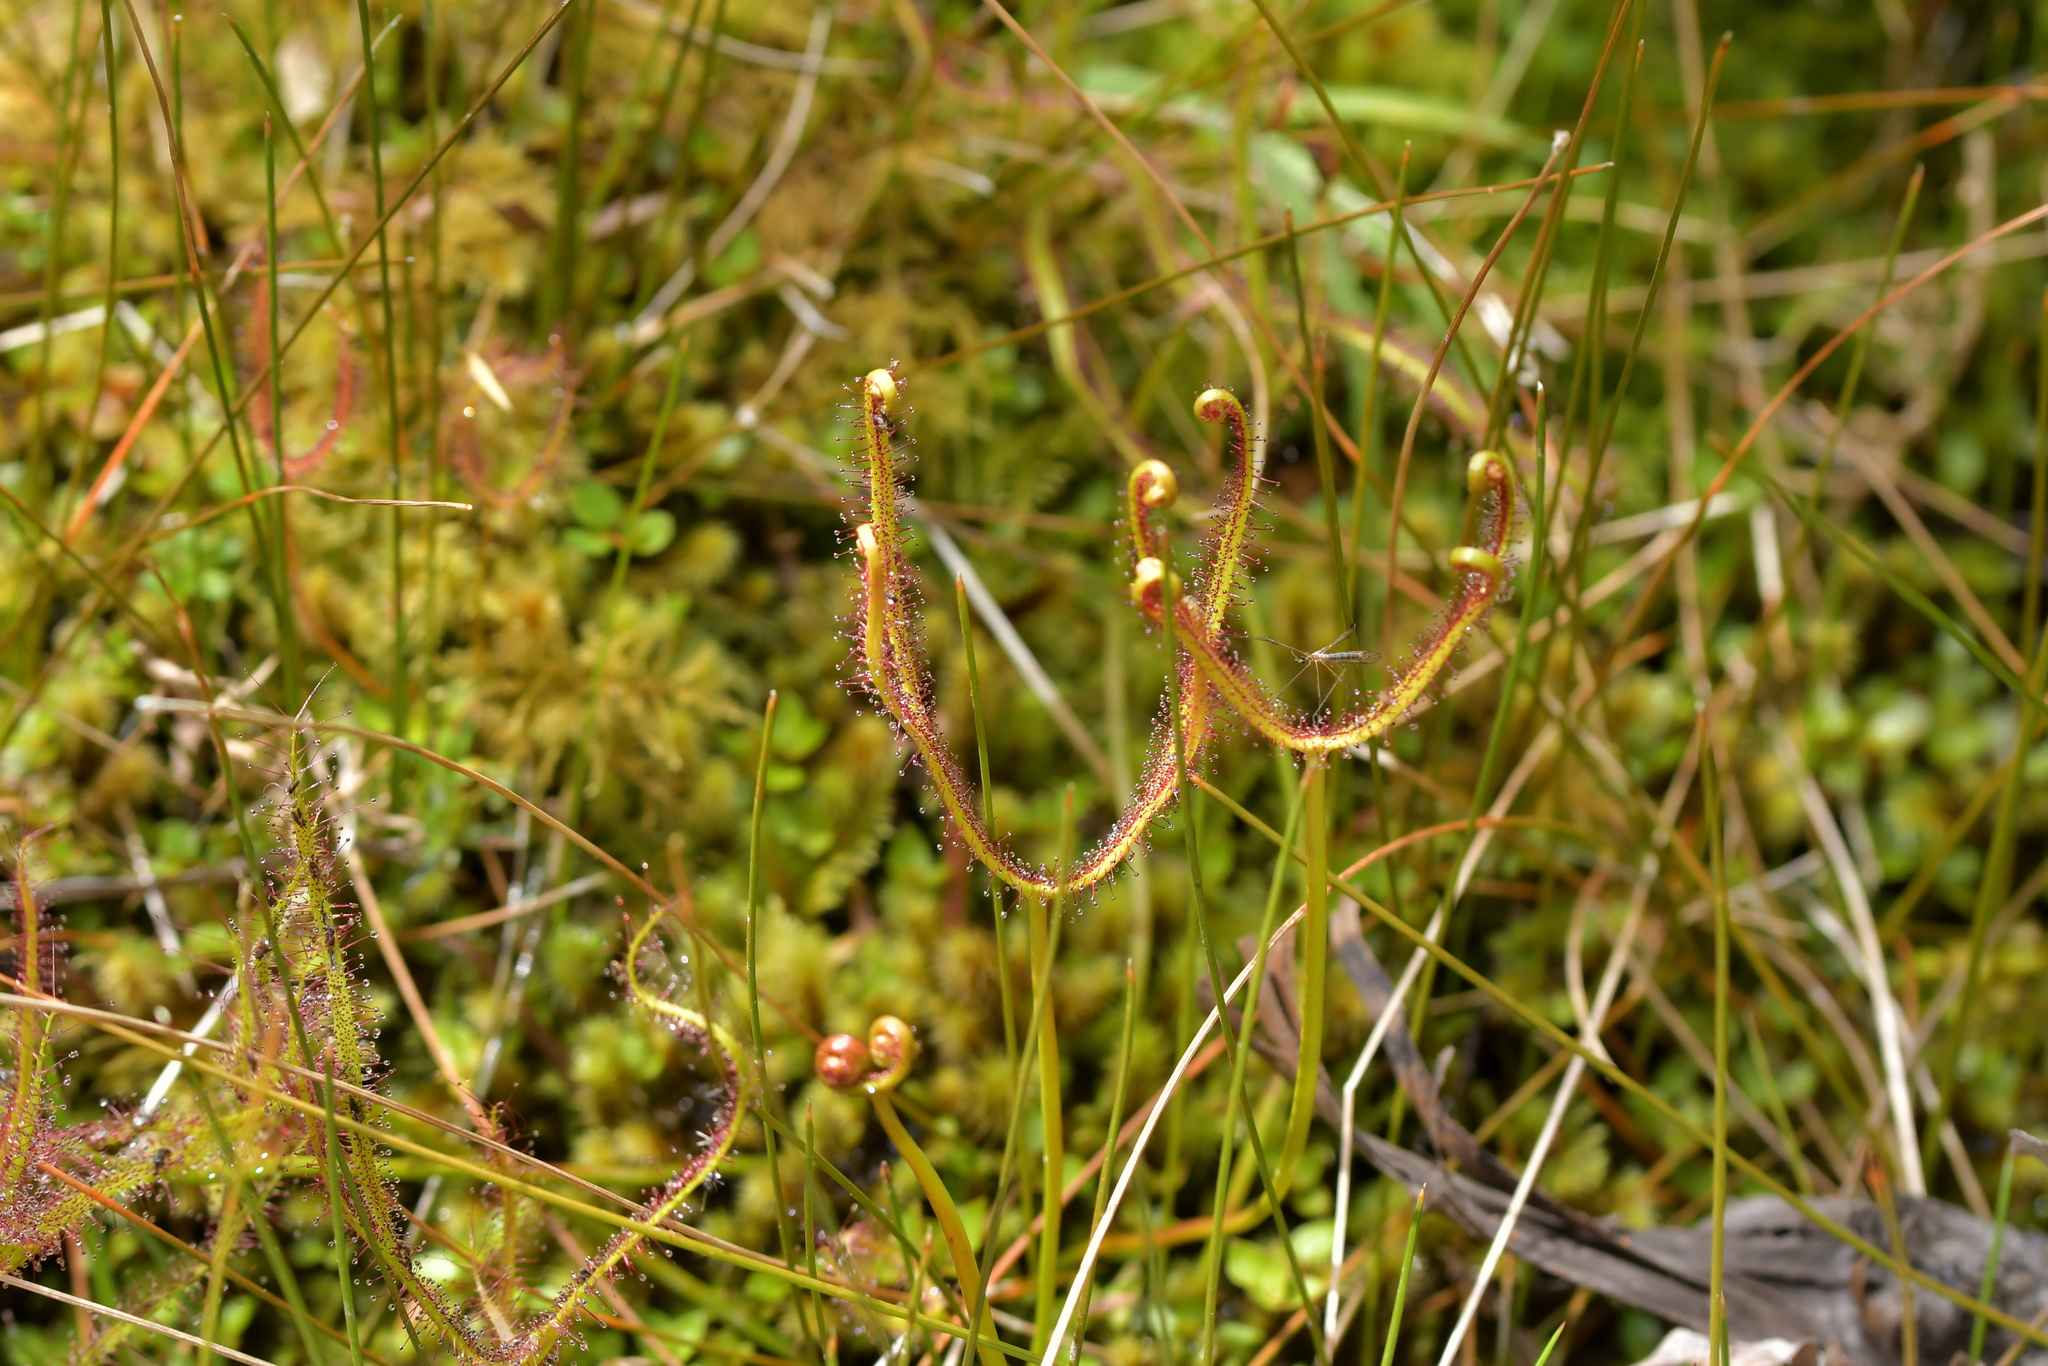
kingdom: Plantae
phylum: Tracheophyta
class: Magnoliopsida
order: Caryophyllales
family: Droseraceae
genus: Drosera
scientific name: Drosera binata
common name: Forked sundew
